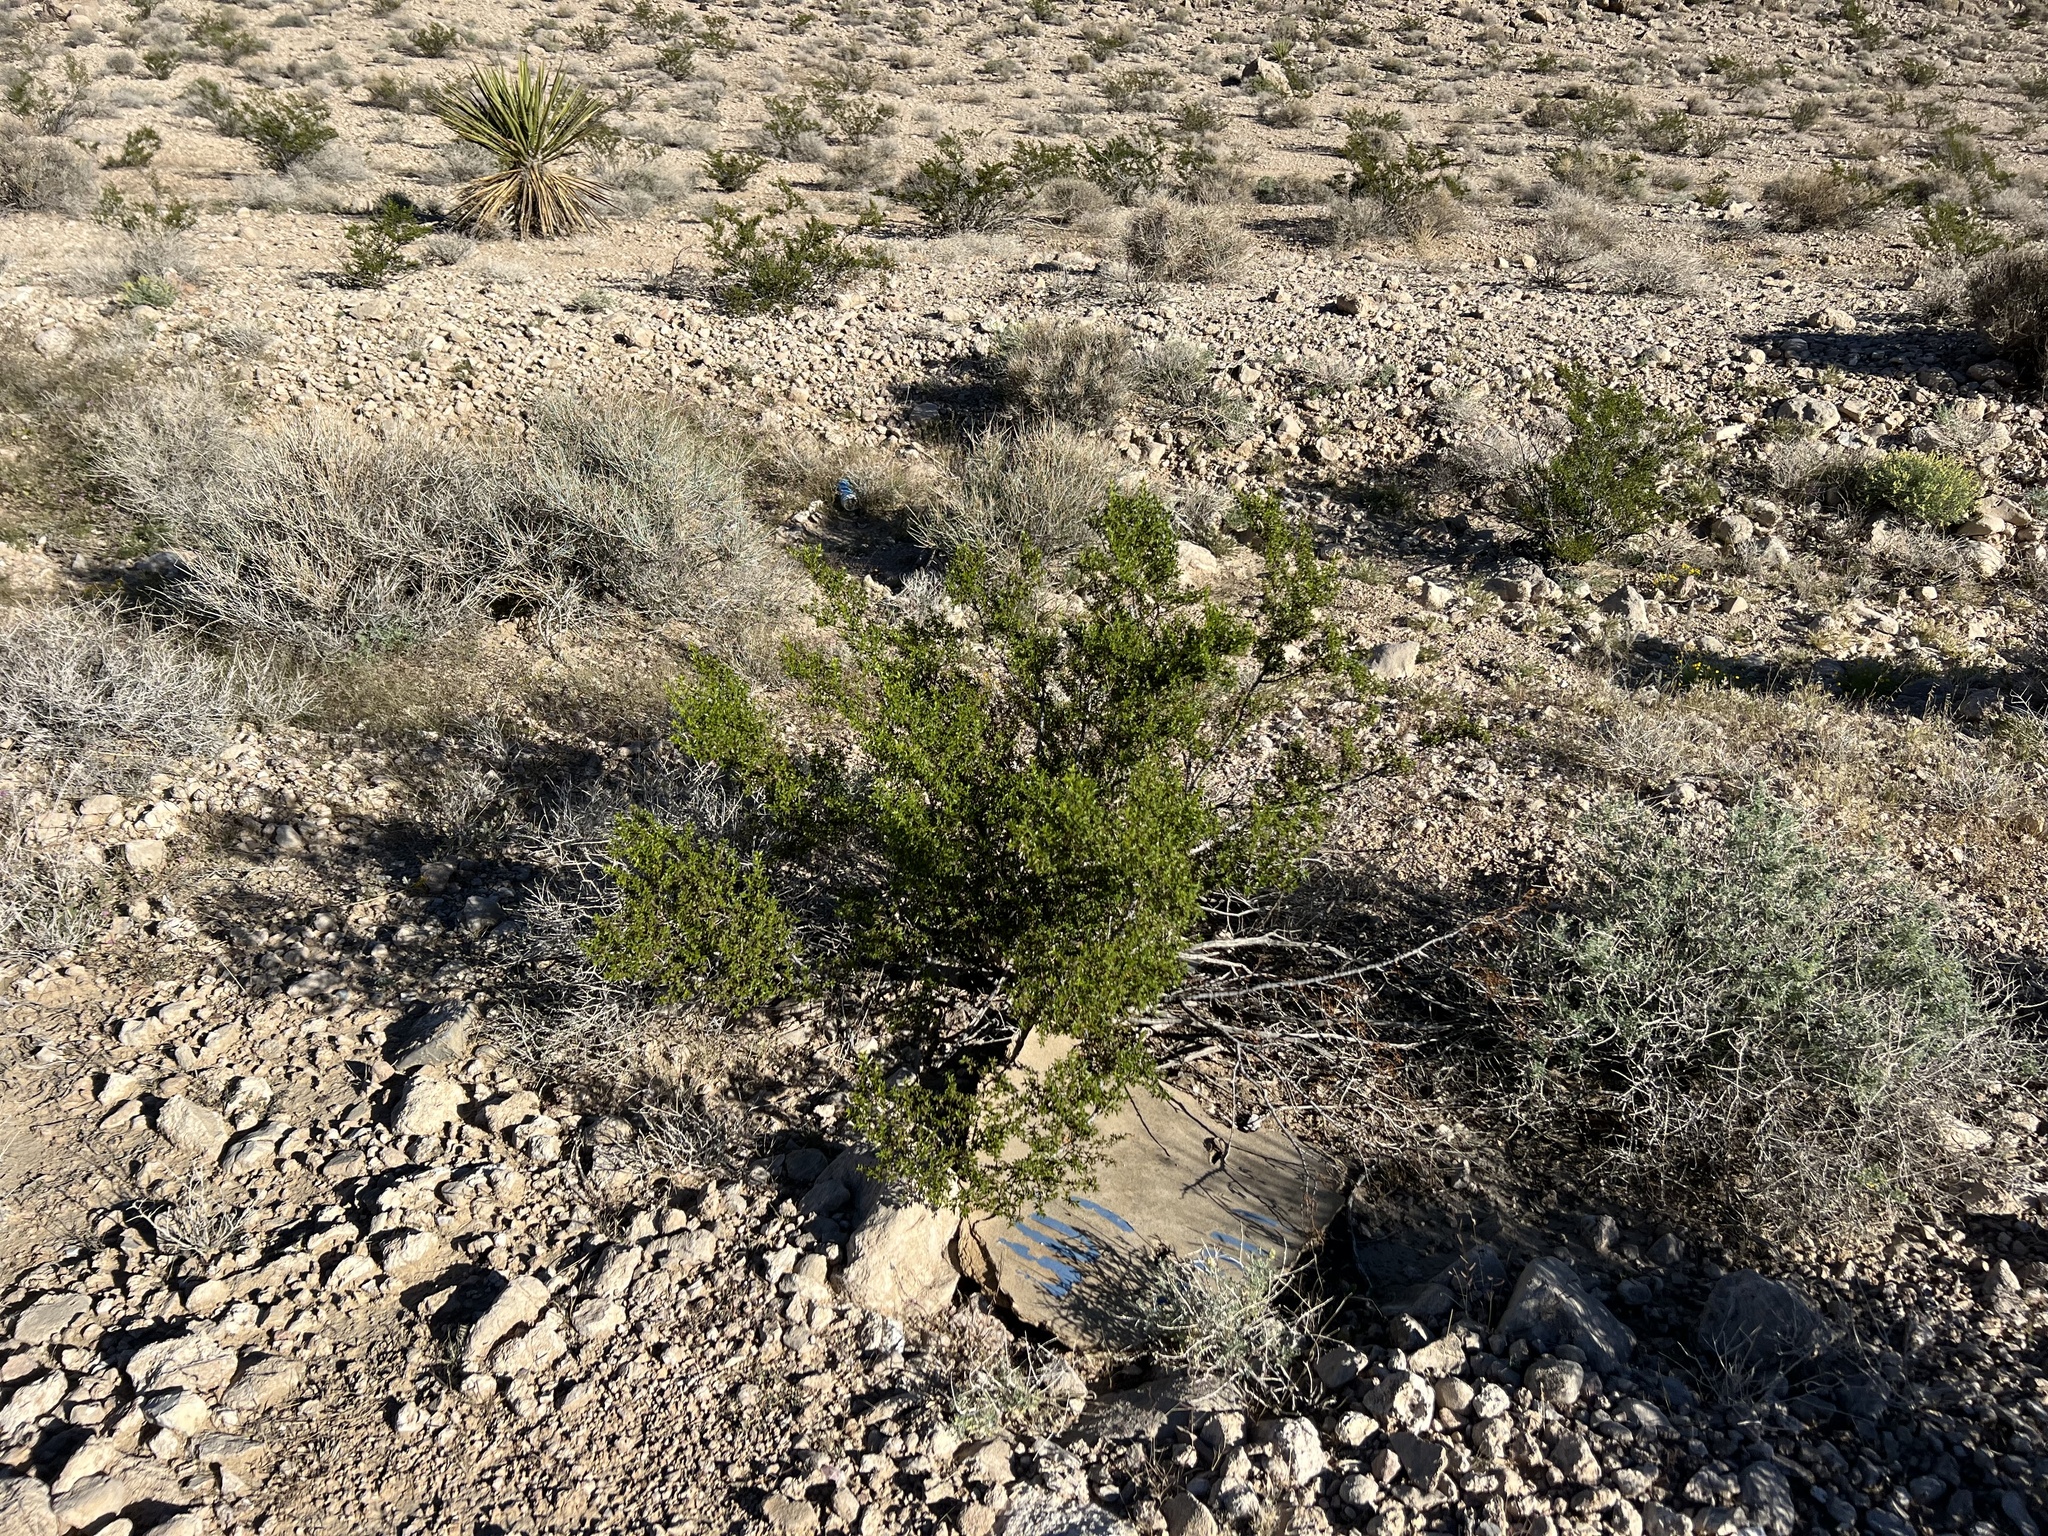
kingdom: Plantae
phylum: Tracheophyta
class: Magnoliopsida
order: Zygophyllales
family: Zygophyllaceae
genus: Larrea
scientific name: Larrea tridentata
